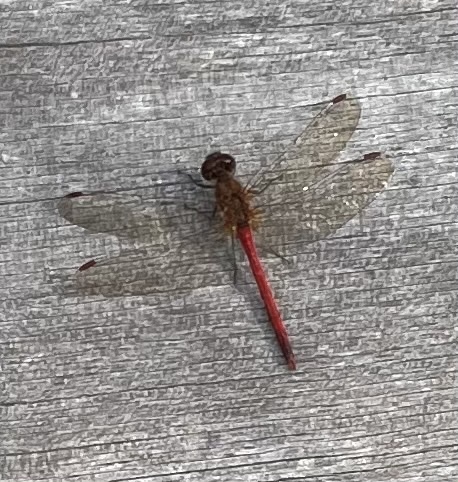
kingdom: Animalia
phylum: Arthropoda
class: Insecta
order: Odonata
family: Libellulidae
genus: Sympetrum
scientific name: Sympetrum vicinum
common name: Autumn meadowhawk
